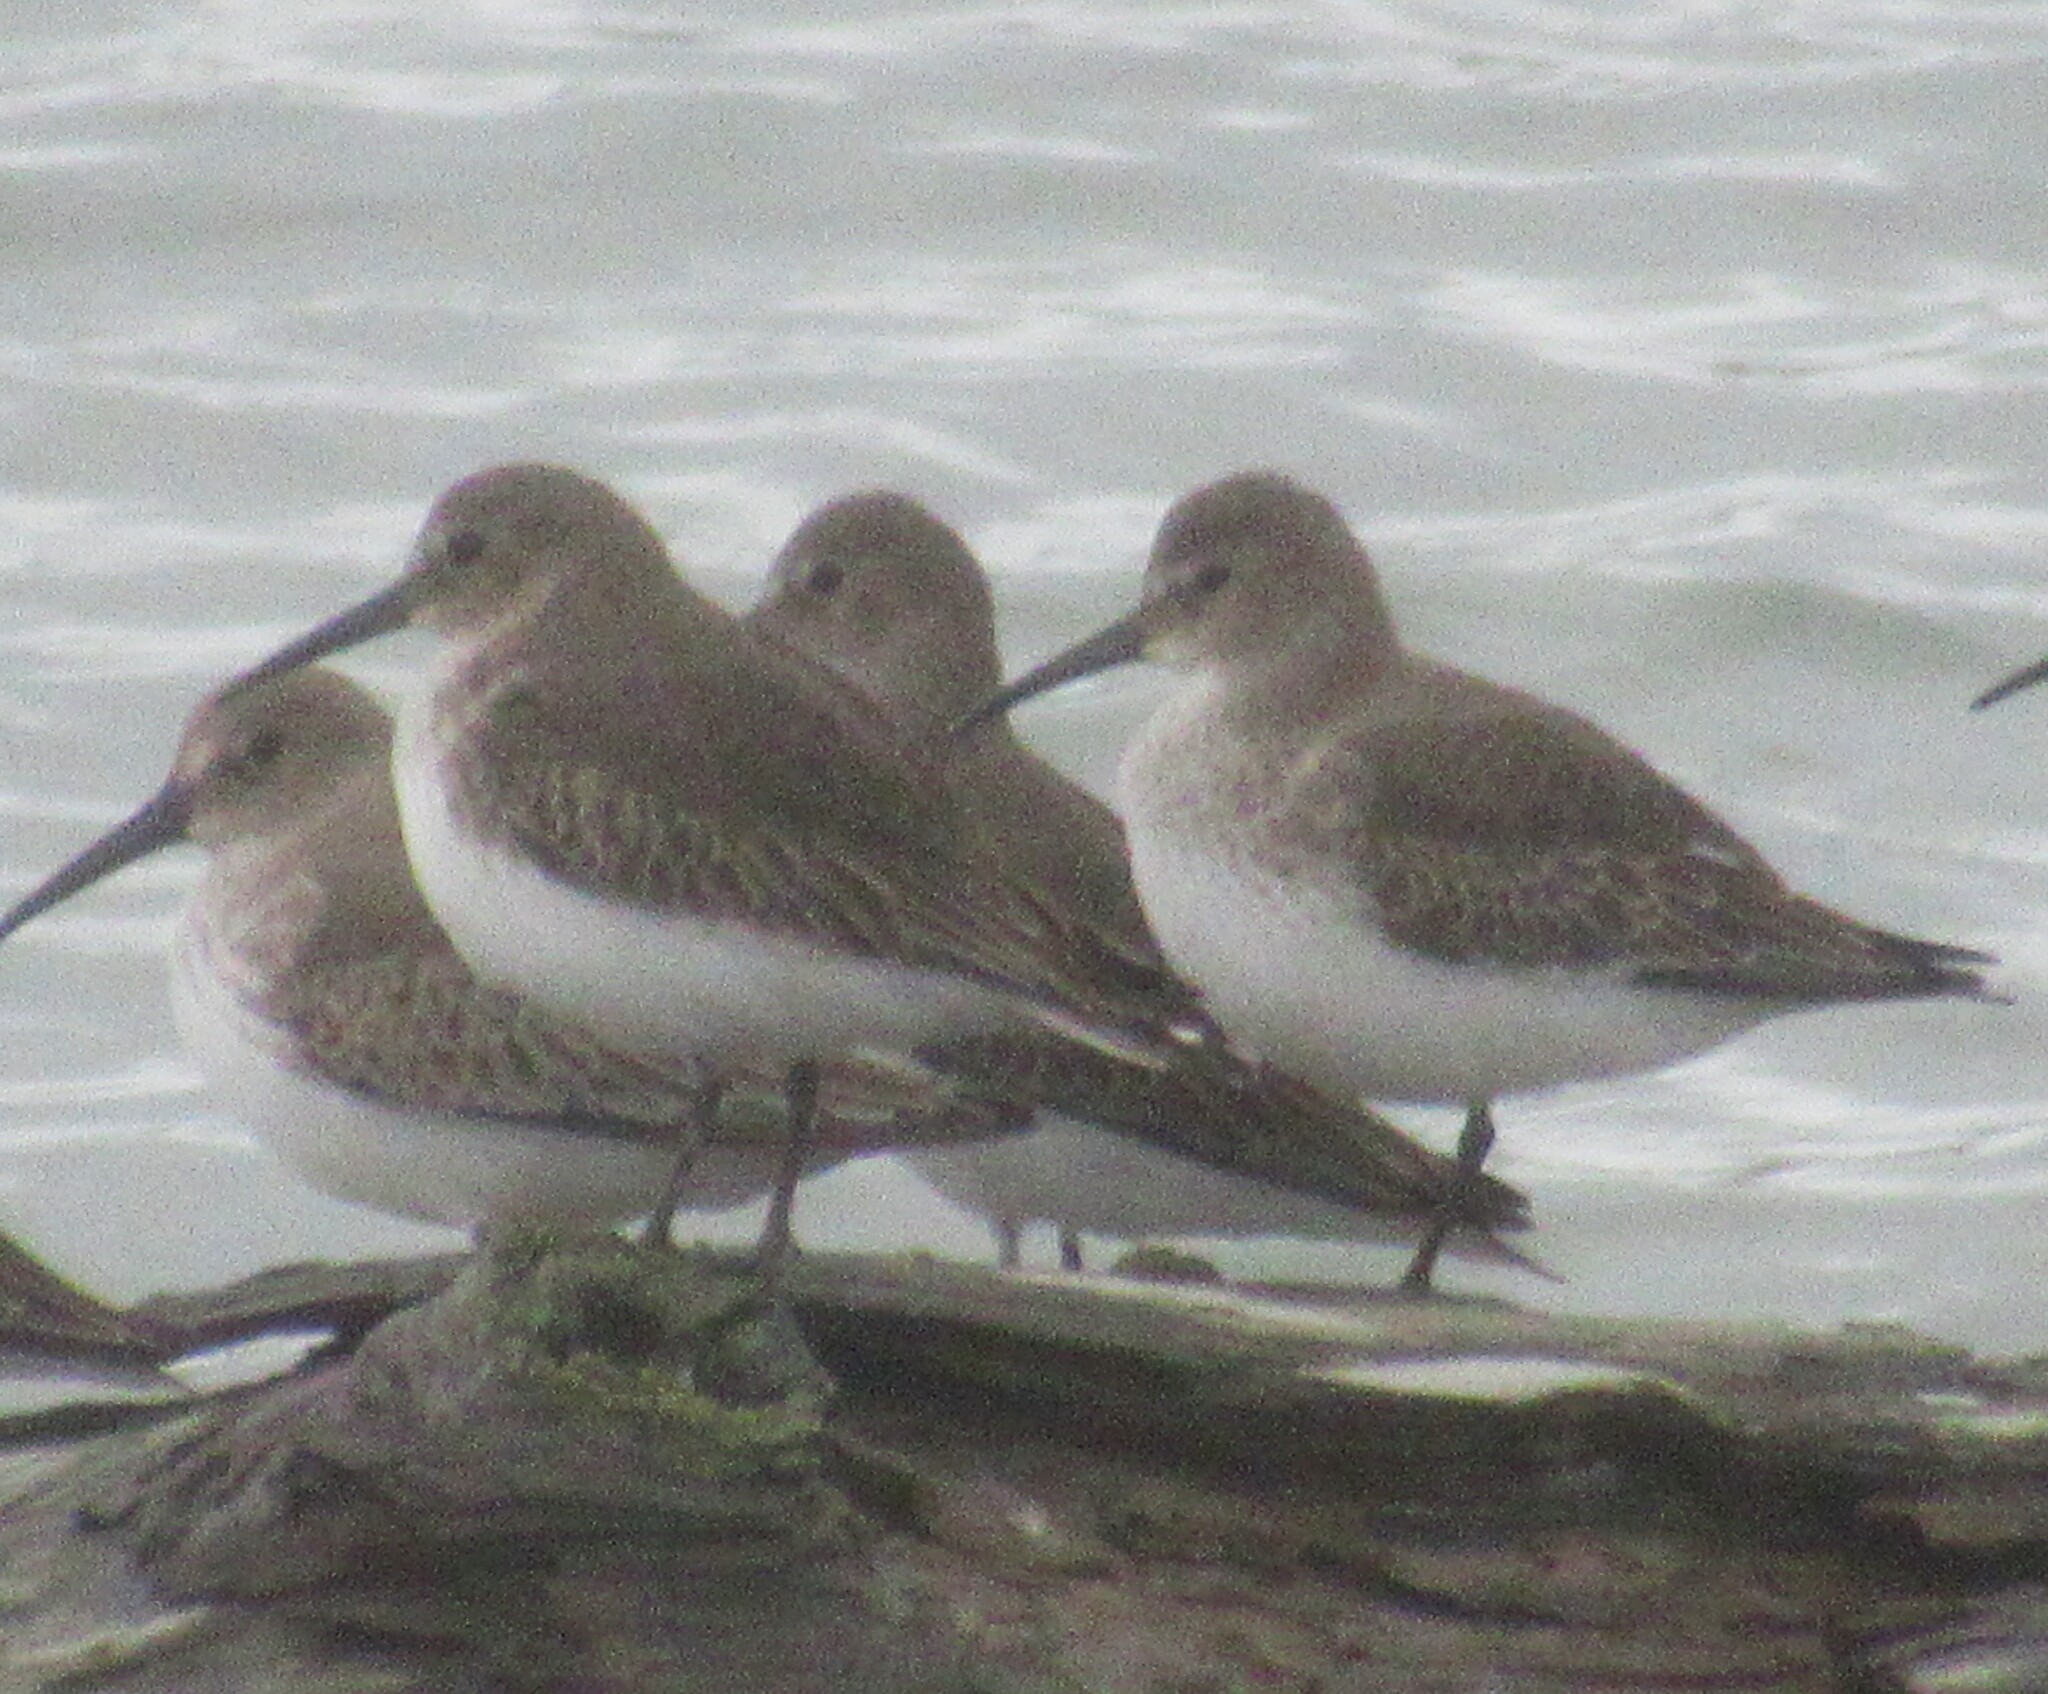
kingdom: Animalia
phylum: Chordata
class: Aves
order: Charadriiformes
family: Scolopacidae
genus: Calidris
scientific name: Calidris alpina
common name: Dunlin
